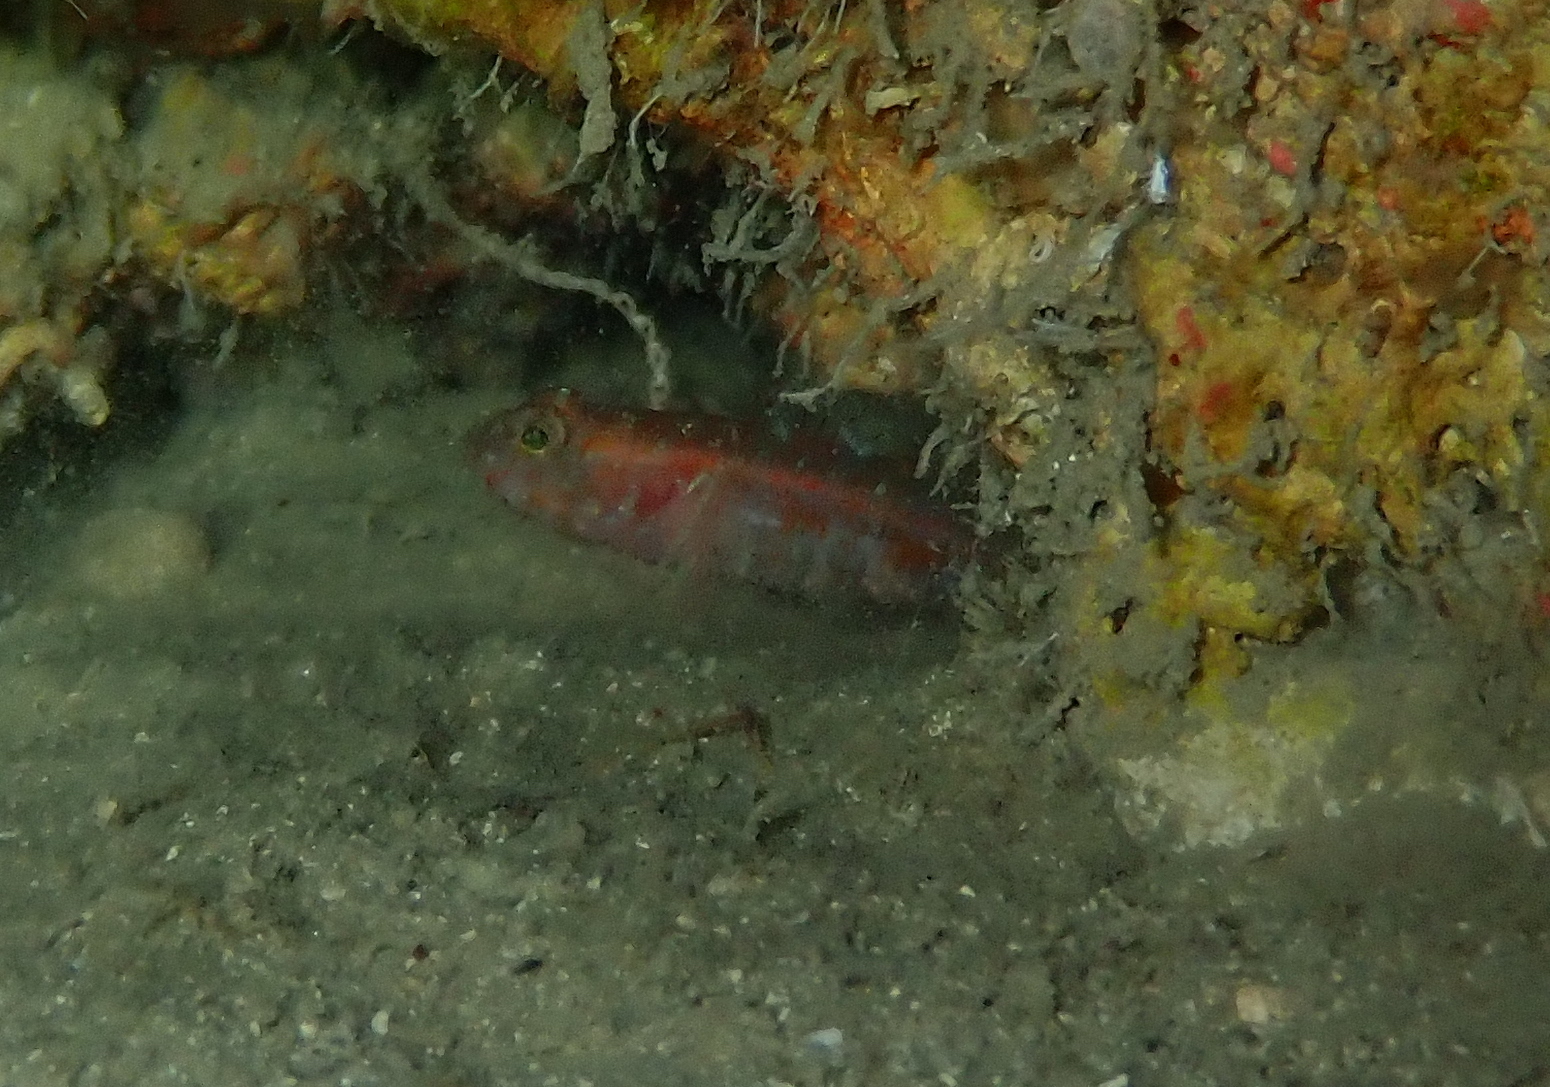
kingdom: Animalia
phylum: Chordata
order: Perciformes
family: Gobiidae
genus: Vanneaugobius
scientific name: Vanneaugobius dollfusi
